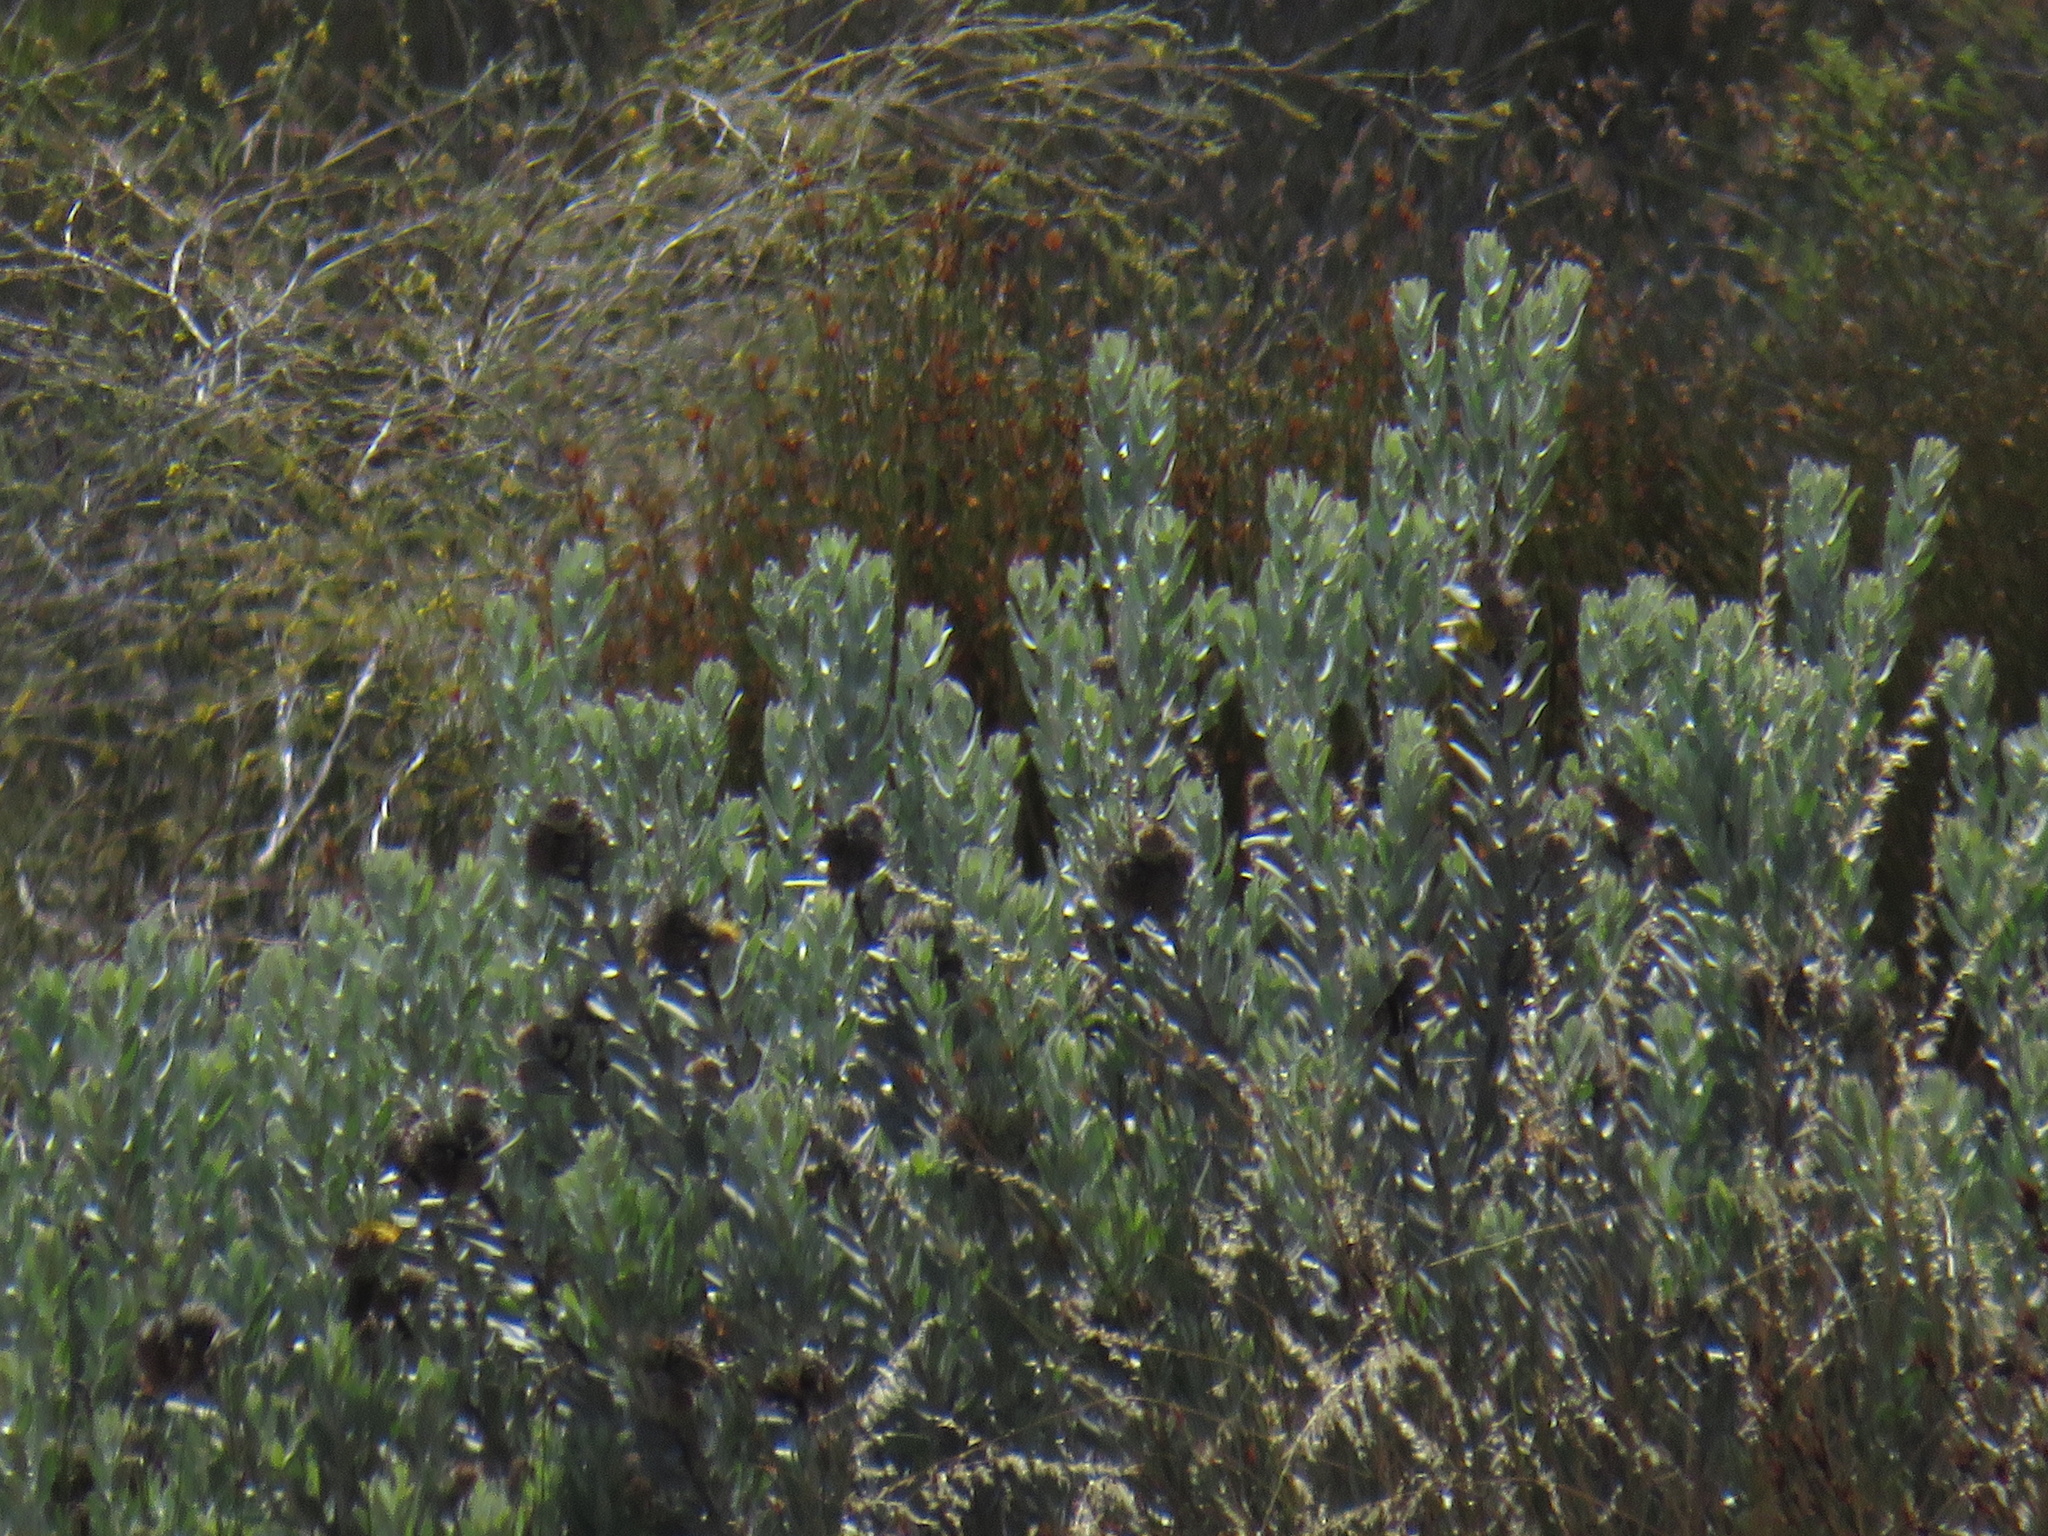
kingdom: Plantae
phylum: Tracheophyta
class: Magnoliopsida
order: Proteales
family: Proteaceae
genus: Leucospermum
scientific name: Leucospermum rodolentum
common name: Pincushion
